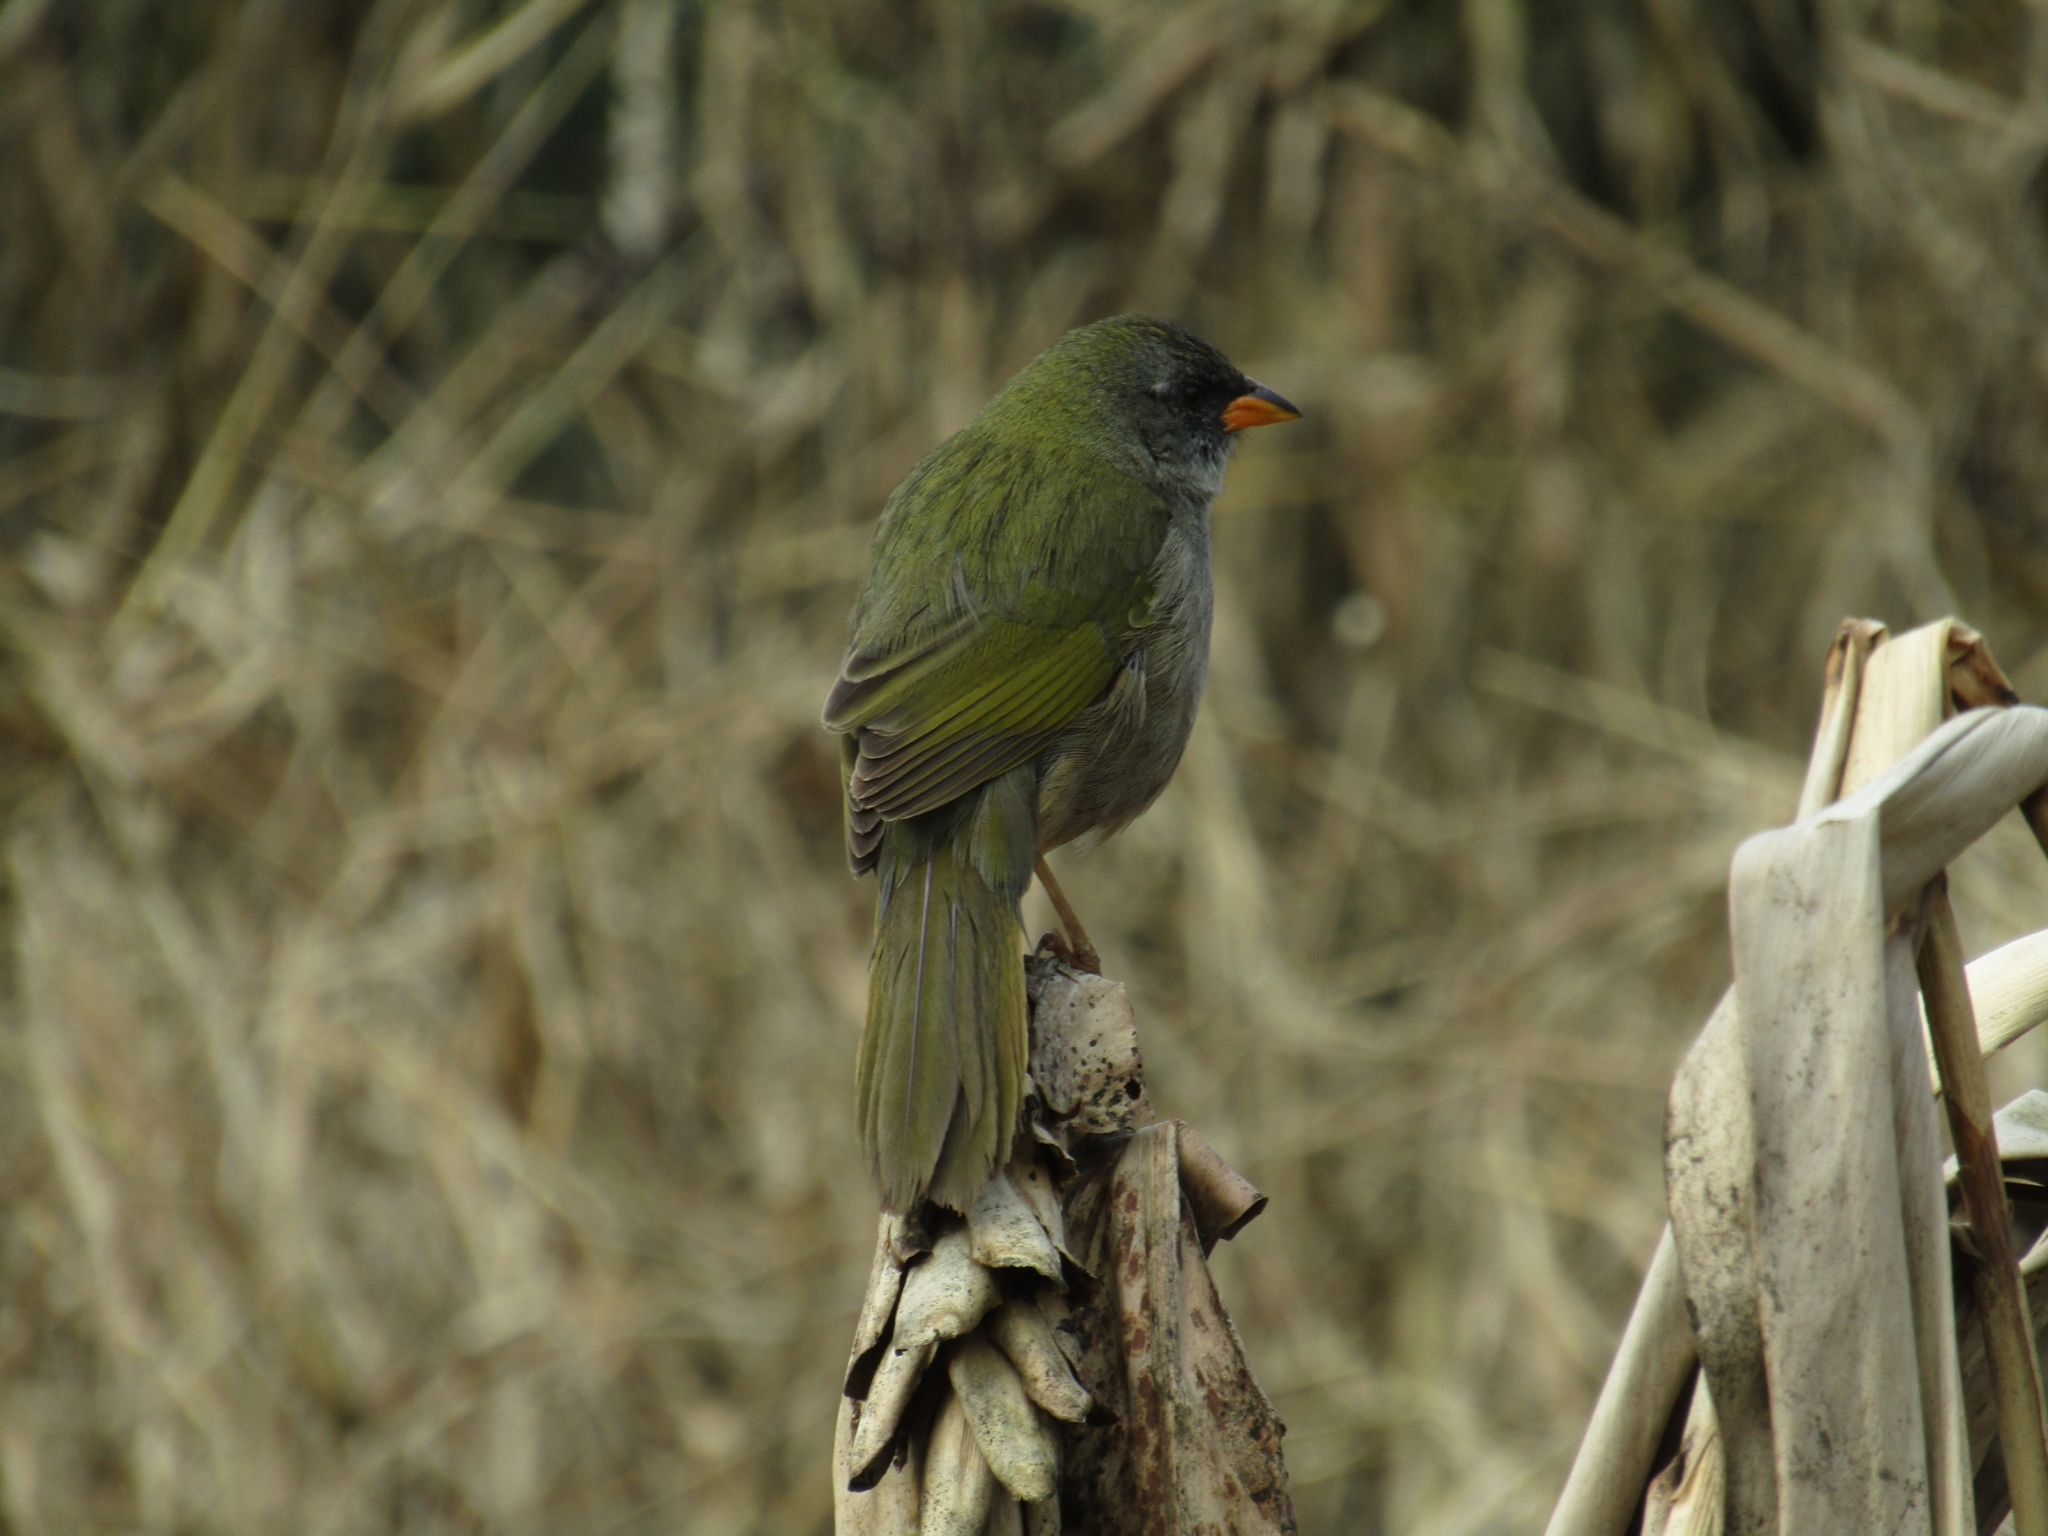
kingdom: Animalia
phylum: Chordata
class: Aves
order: Passeriformes
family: Thraupidae
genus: Embernagra
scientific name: Embernagra platensis
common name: Pampa finch
